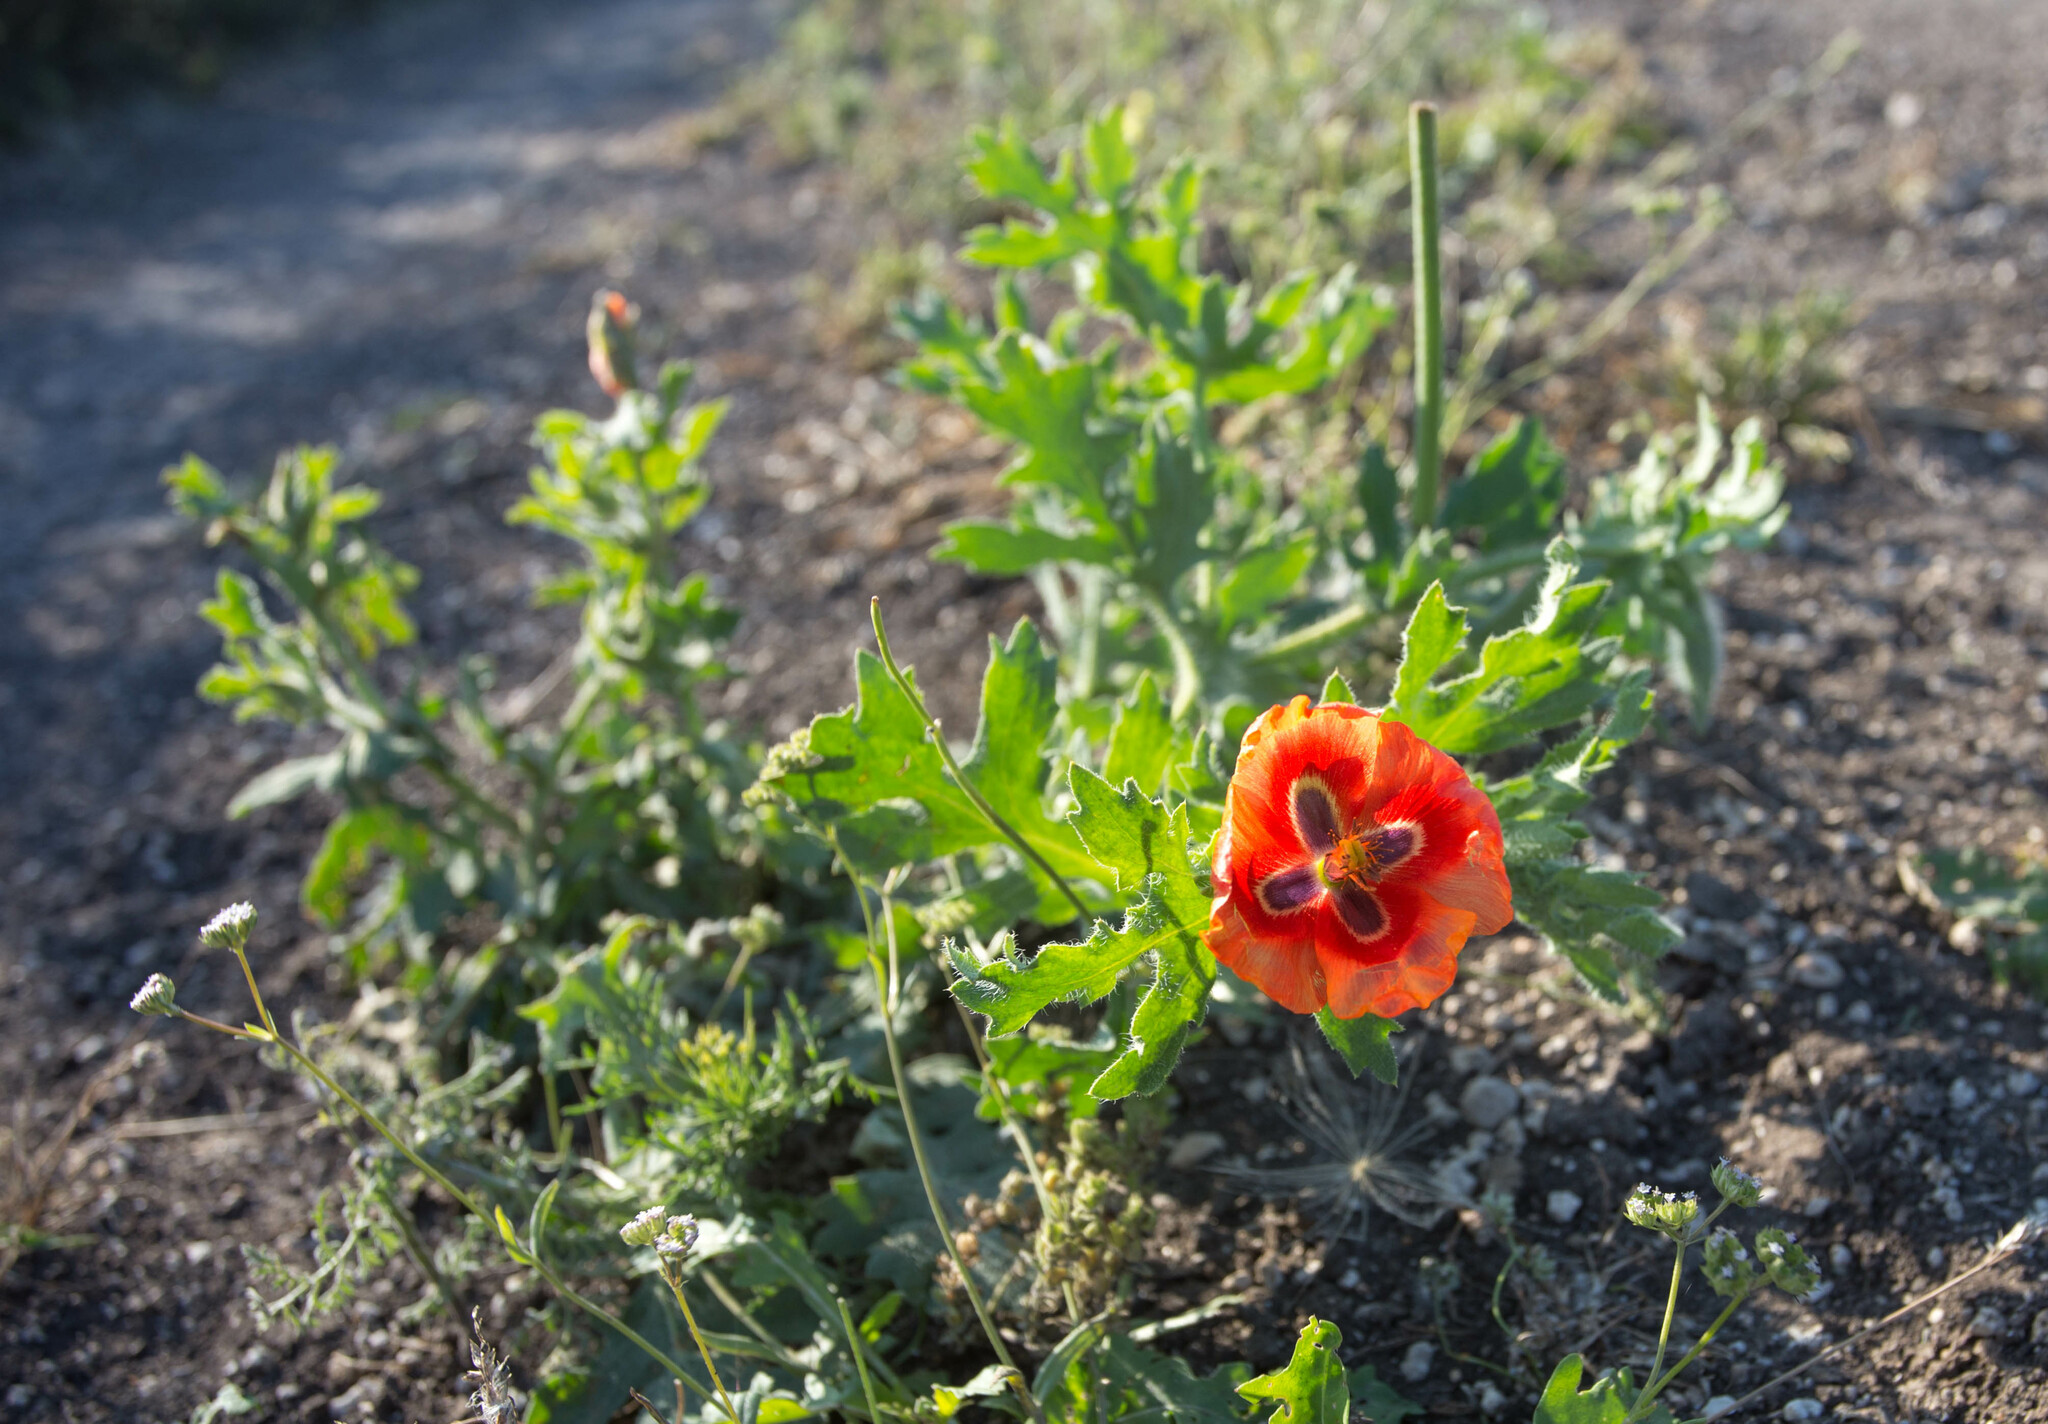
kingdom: Plantae
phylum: Tracheophyta
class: Magnoliopsida
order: Ranunculales
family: Papaveraceae
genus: Glaucium
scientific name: Glaucium corniculatum
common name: Red horned-poppy
